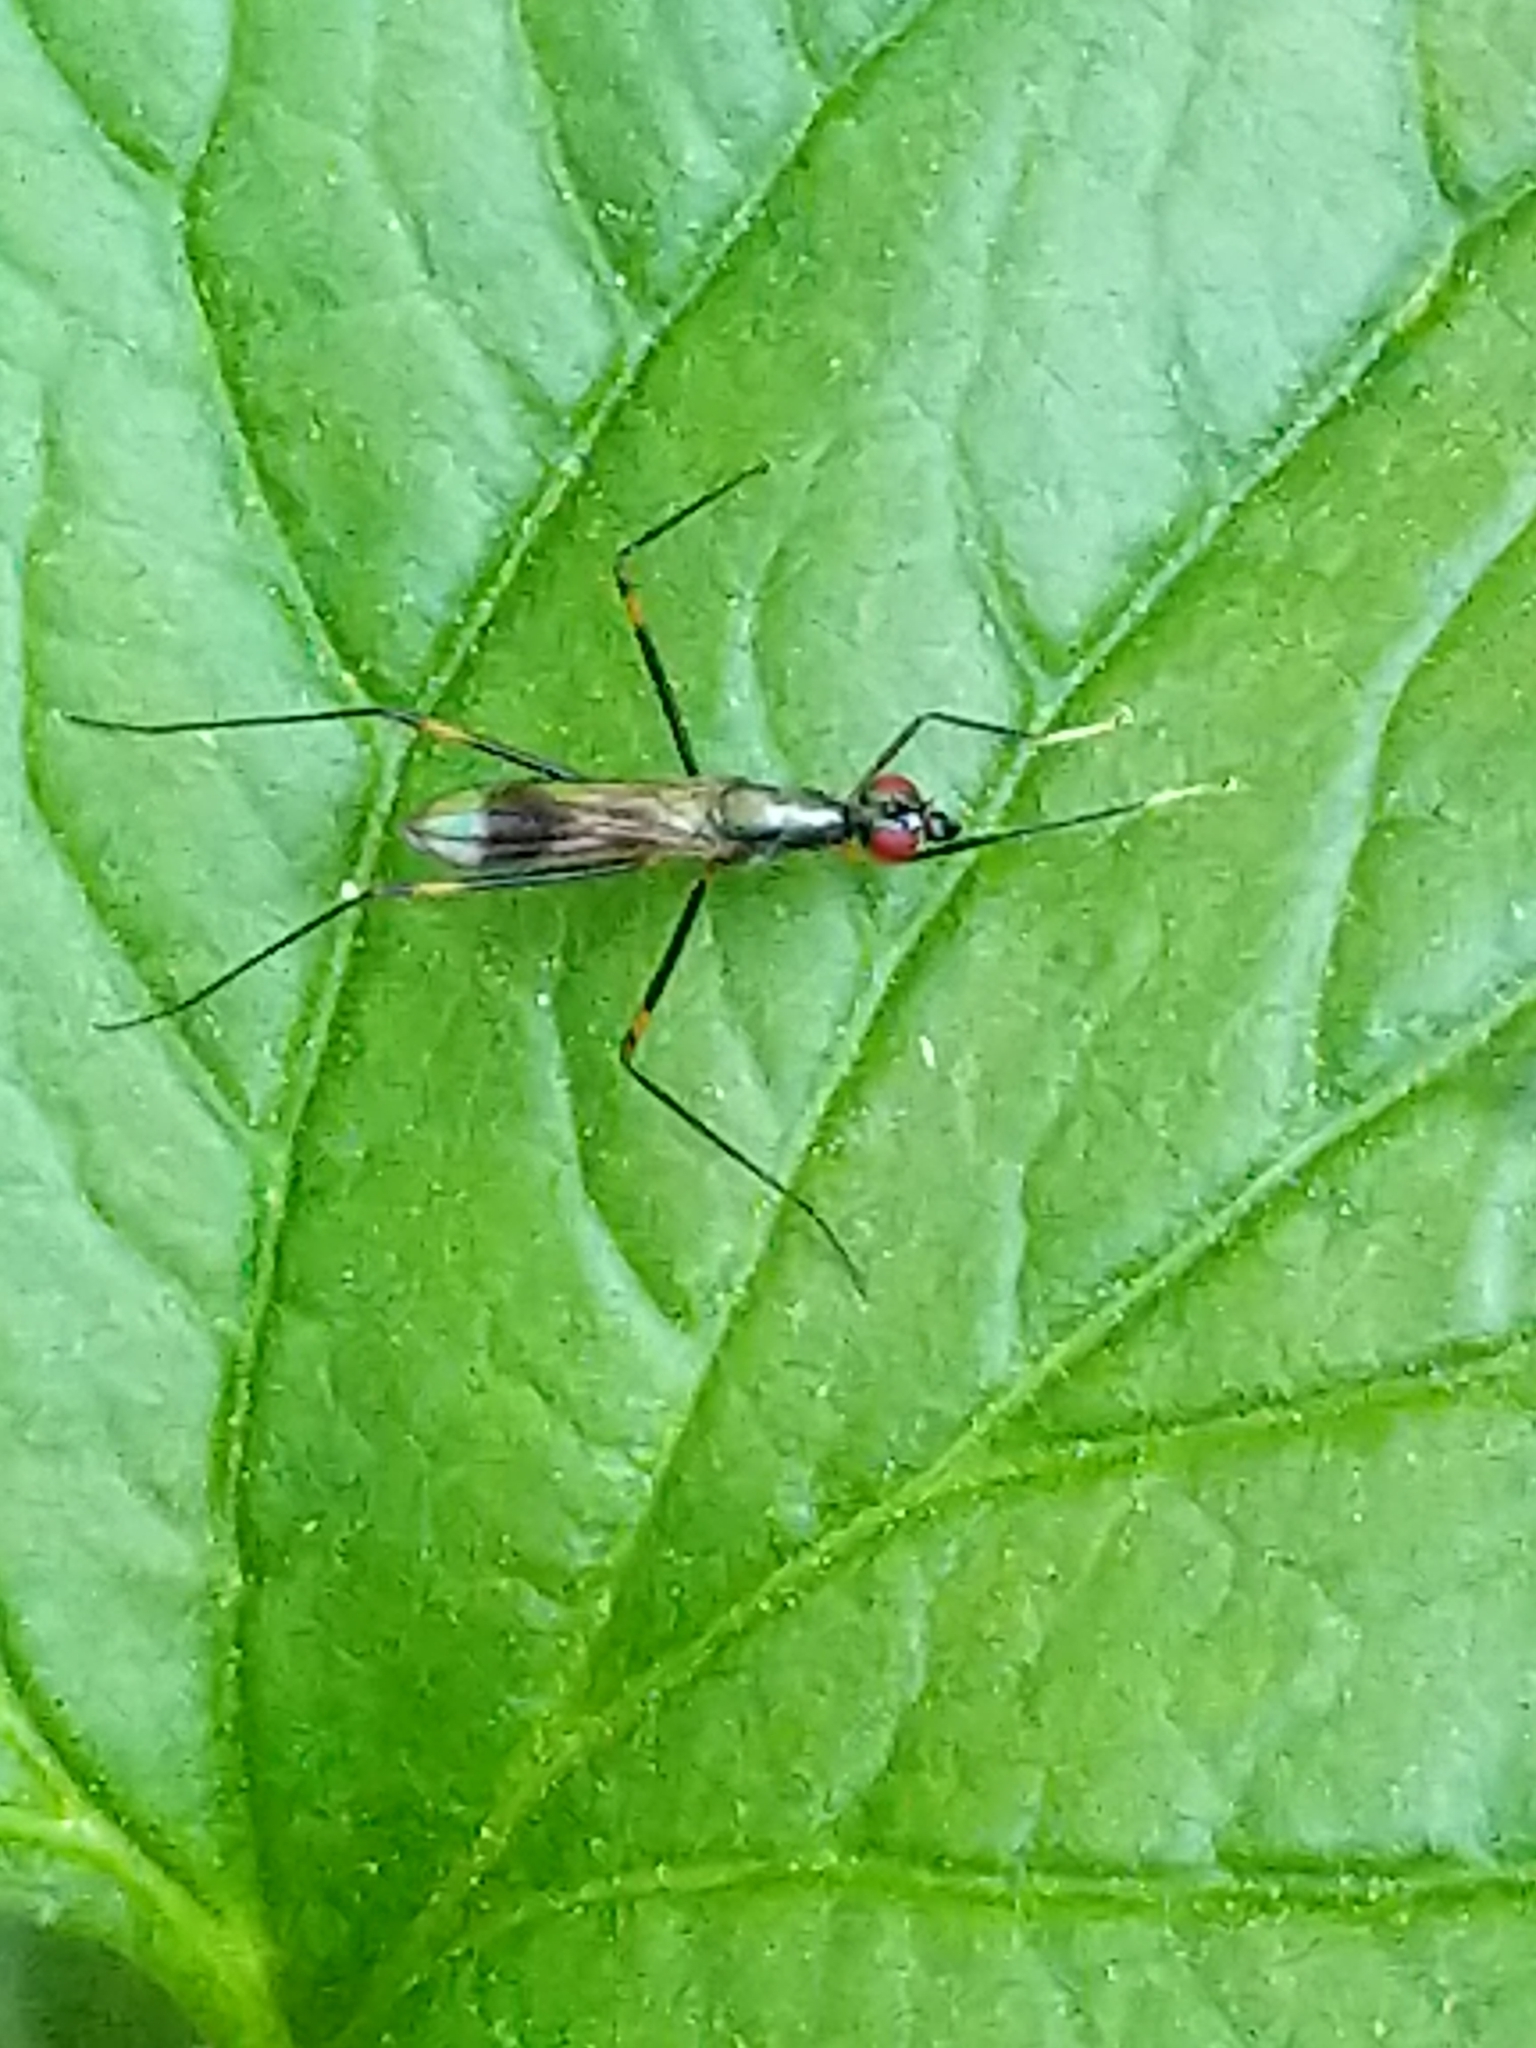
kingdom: Animalia
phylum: Arthropoda
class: Insecta
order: Diptera
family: Micropezidae
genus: Rainieria
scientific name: Rainieria antennaepes
